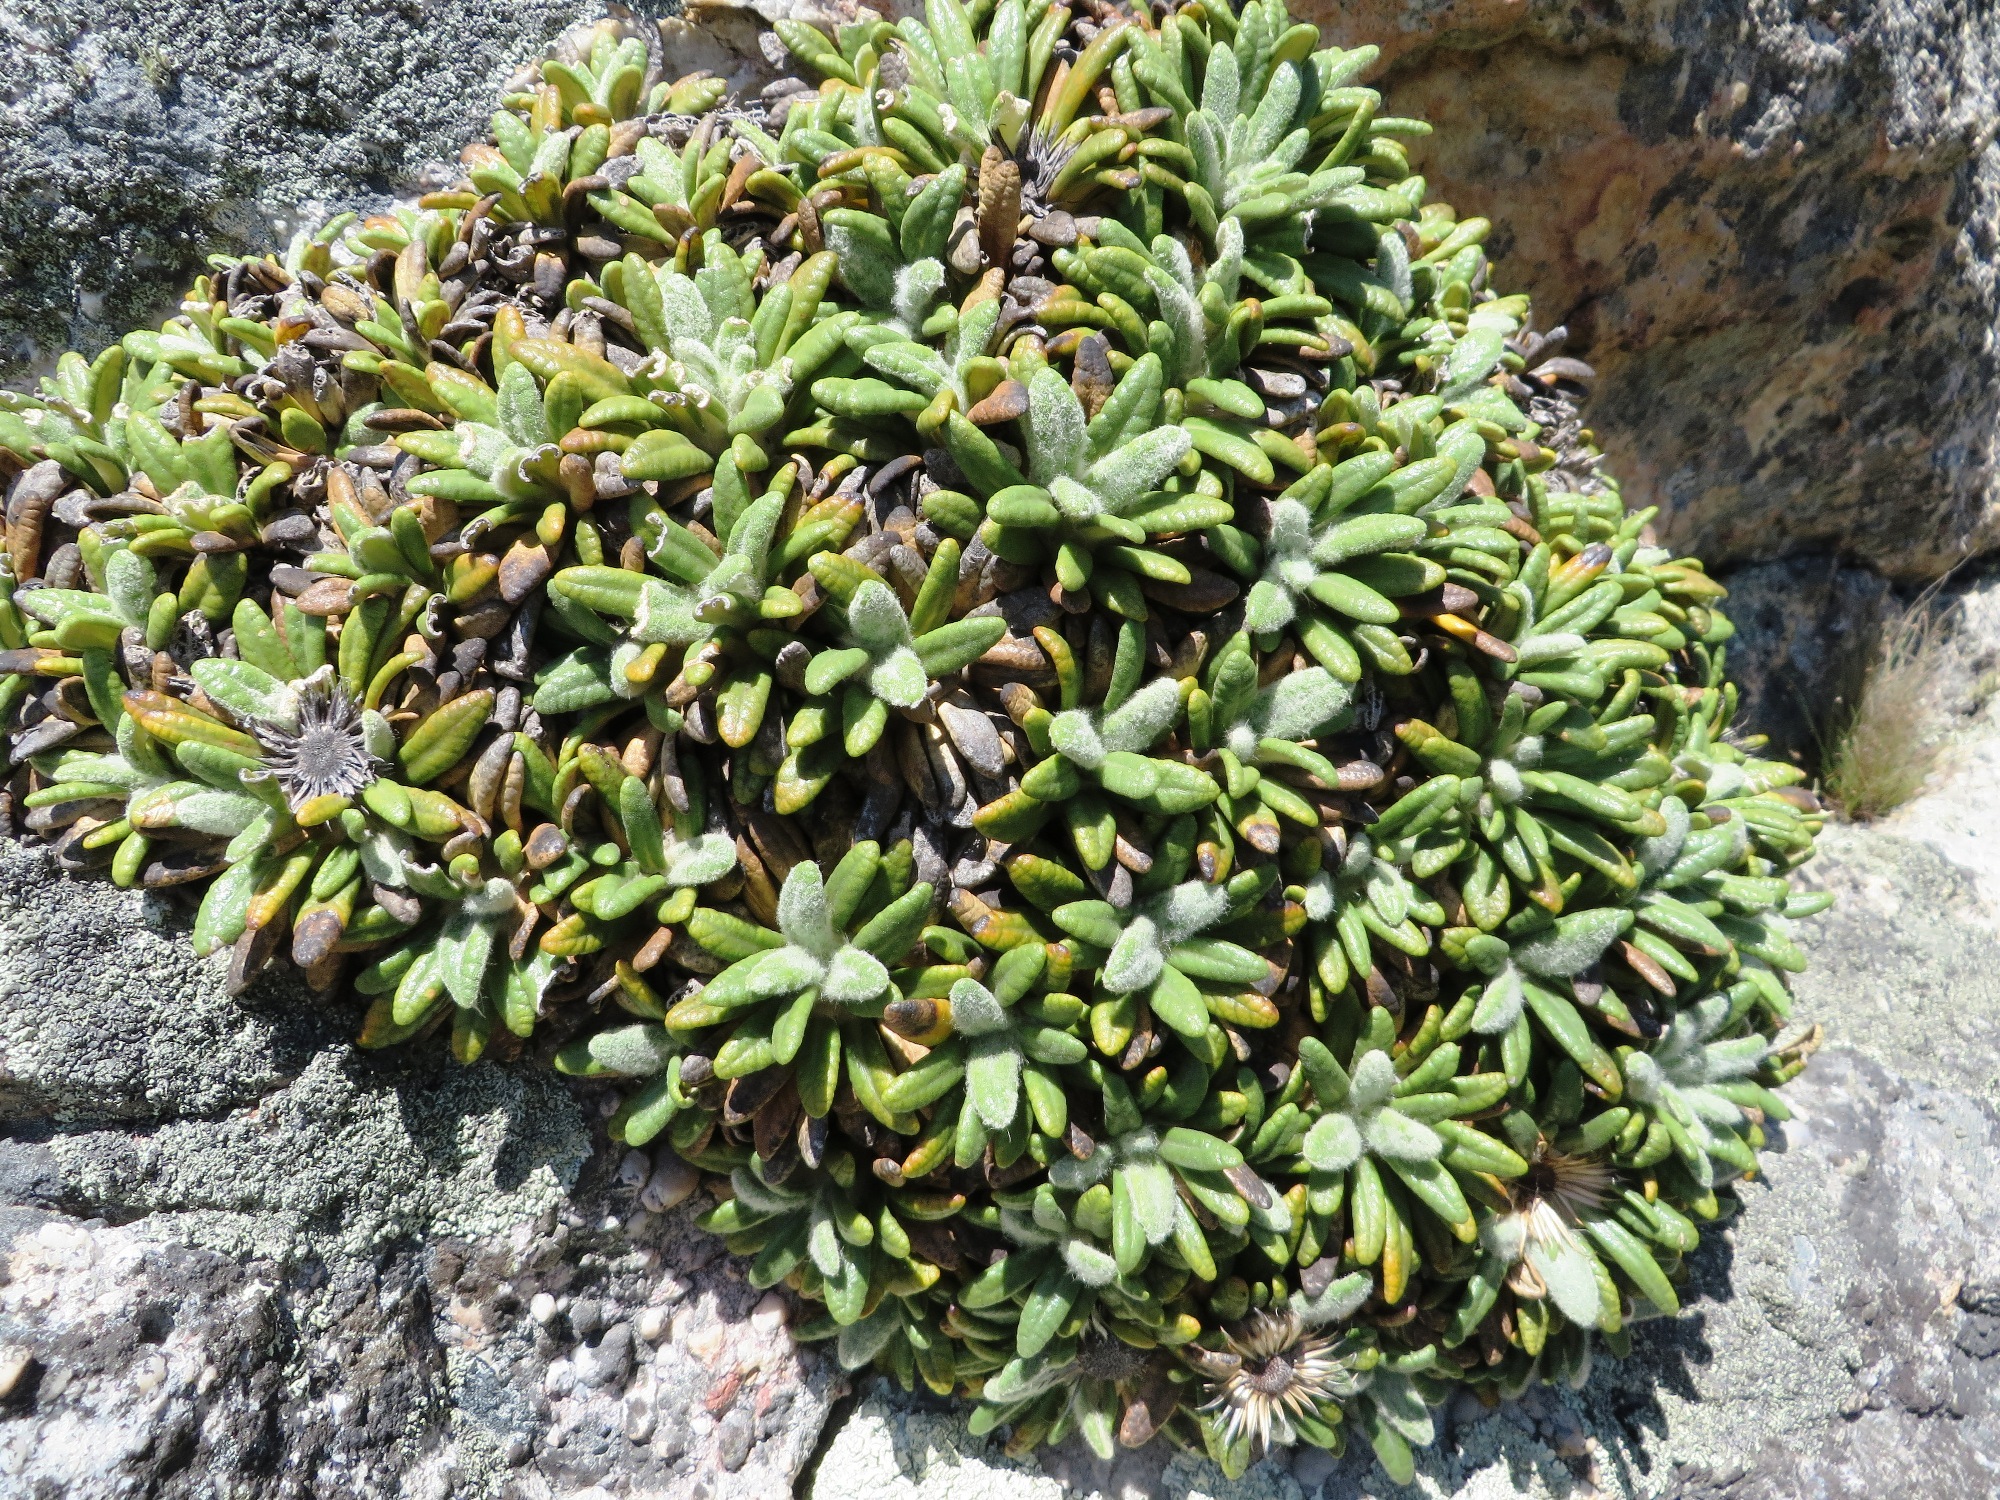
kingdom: Plantae
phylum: Tracheophyta
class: Magnoliopsida
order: Asterales
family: Asteraceae
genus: Oldenburgia
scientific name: Oldenburgia paradoxa
